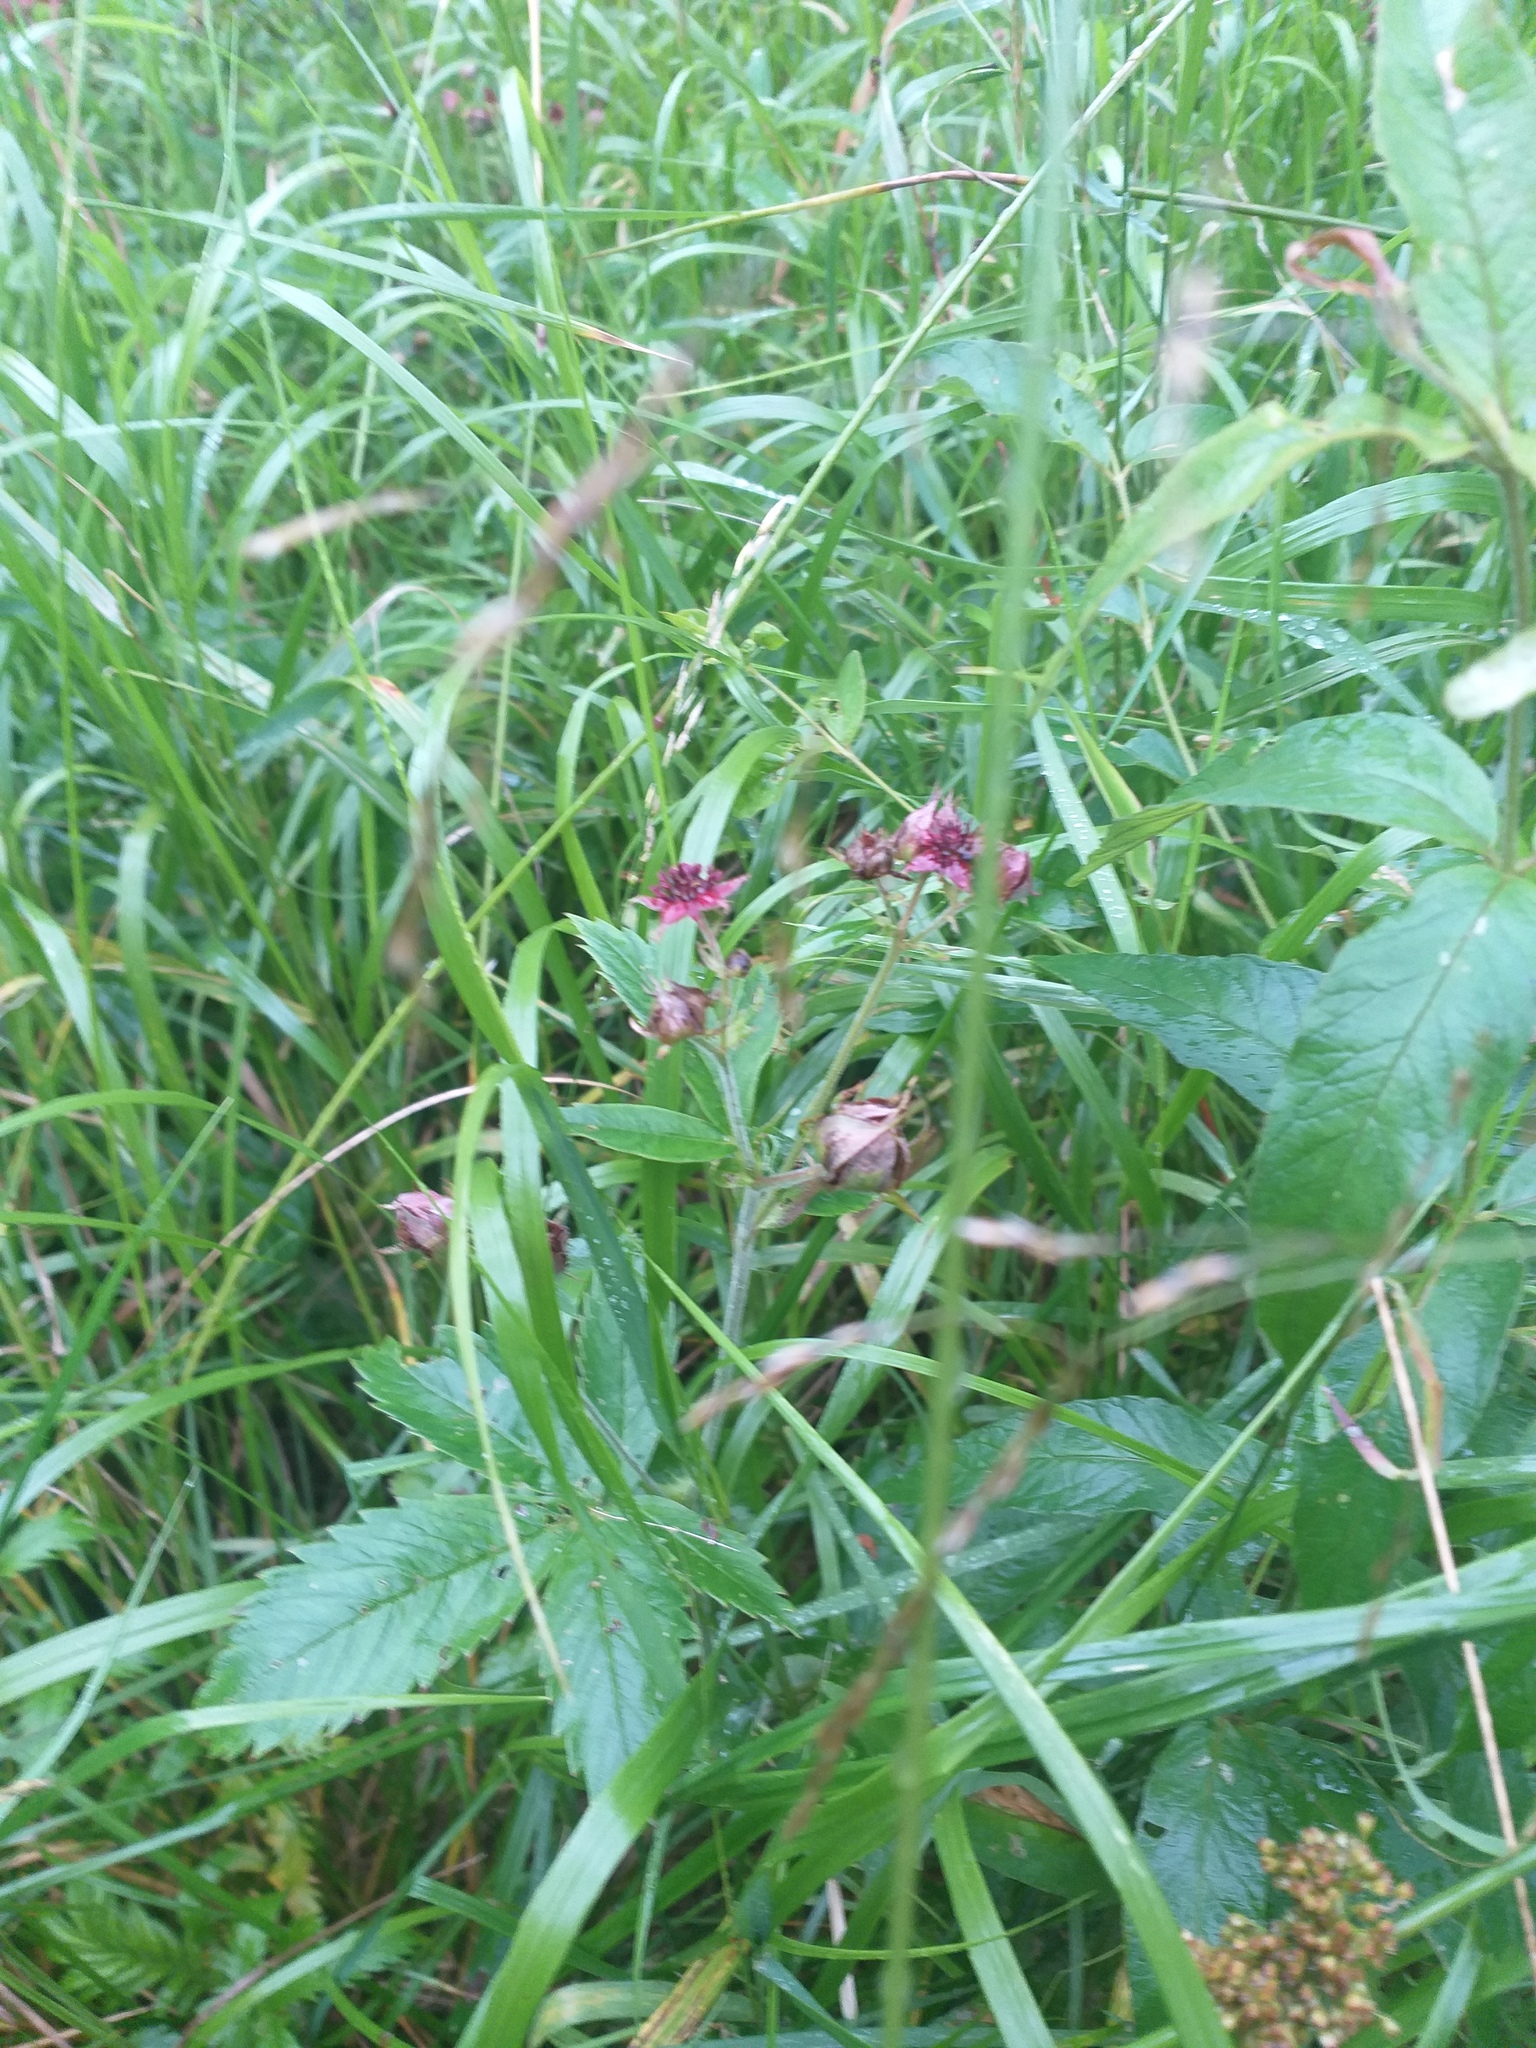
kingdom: Plantae
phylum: Tracheophyta
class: Magnoliopsida
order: Rosales
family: Rosaceae
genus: Comarum
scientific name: Comarum palustre
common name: Marsh cinquefoil
